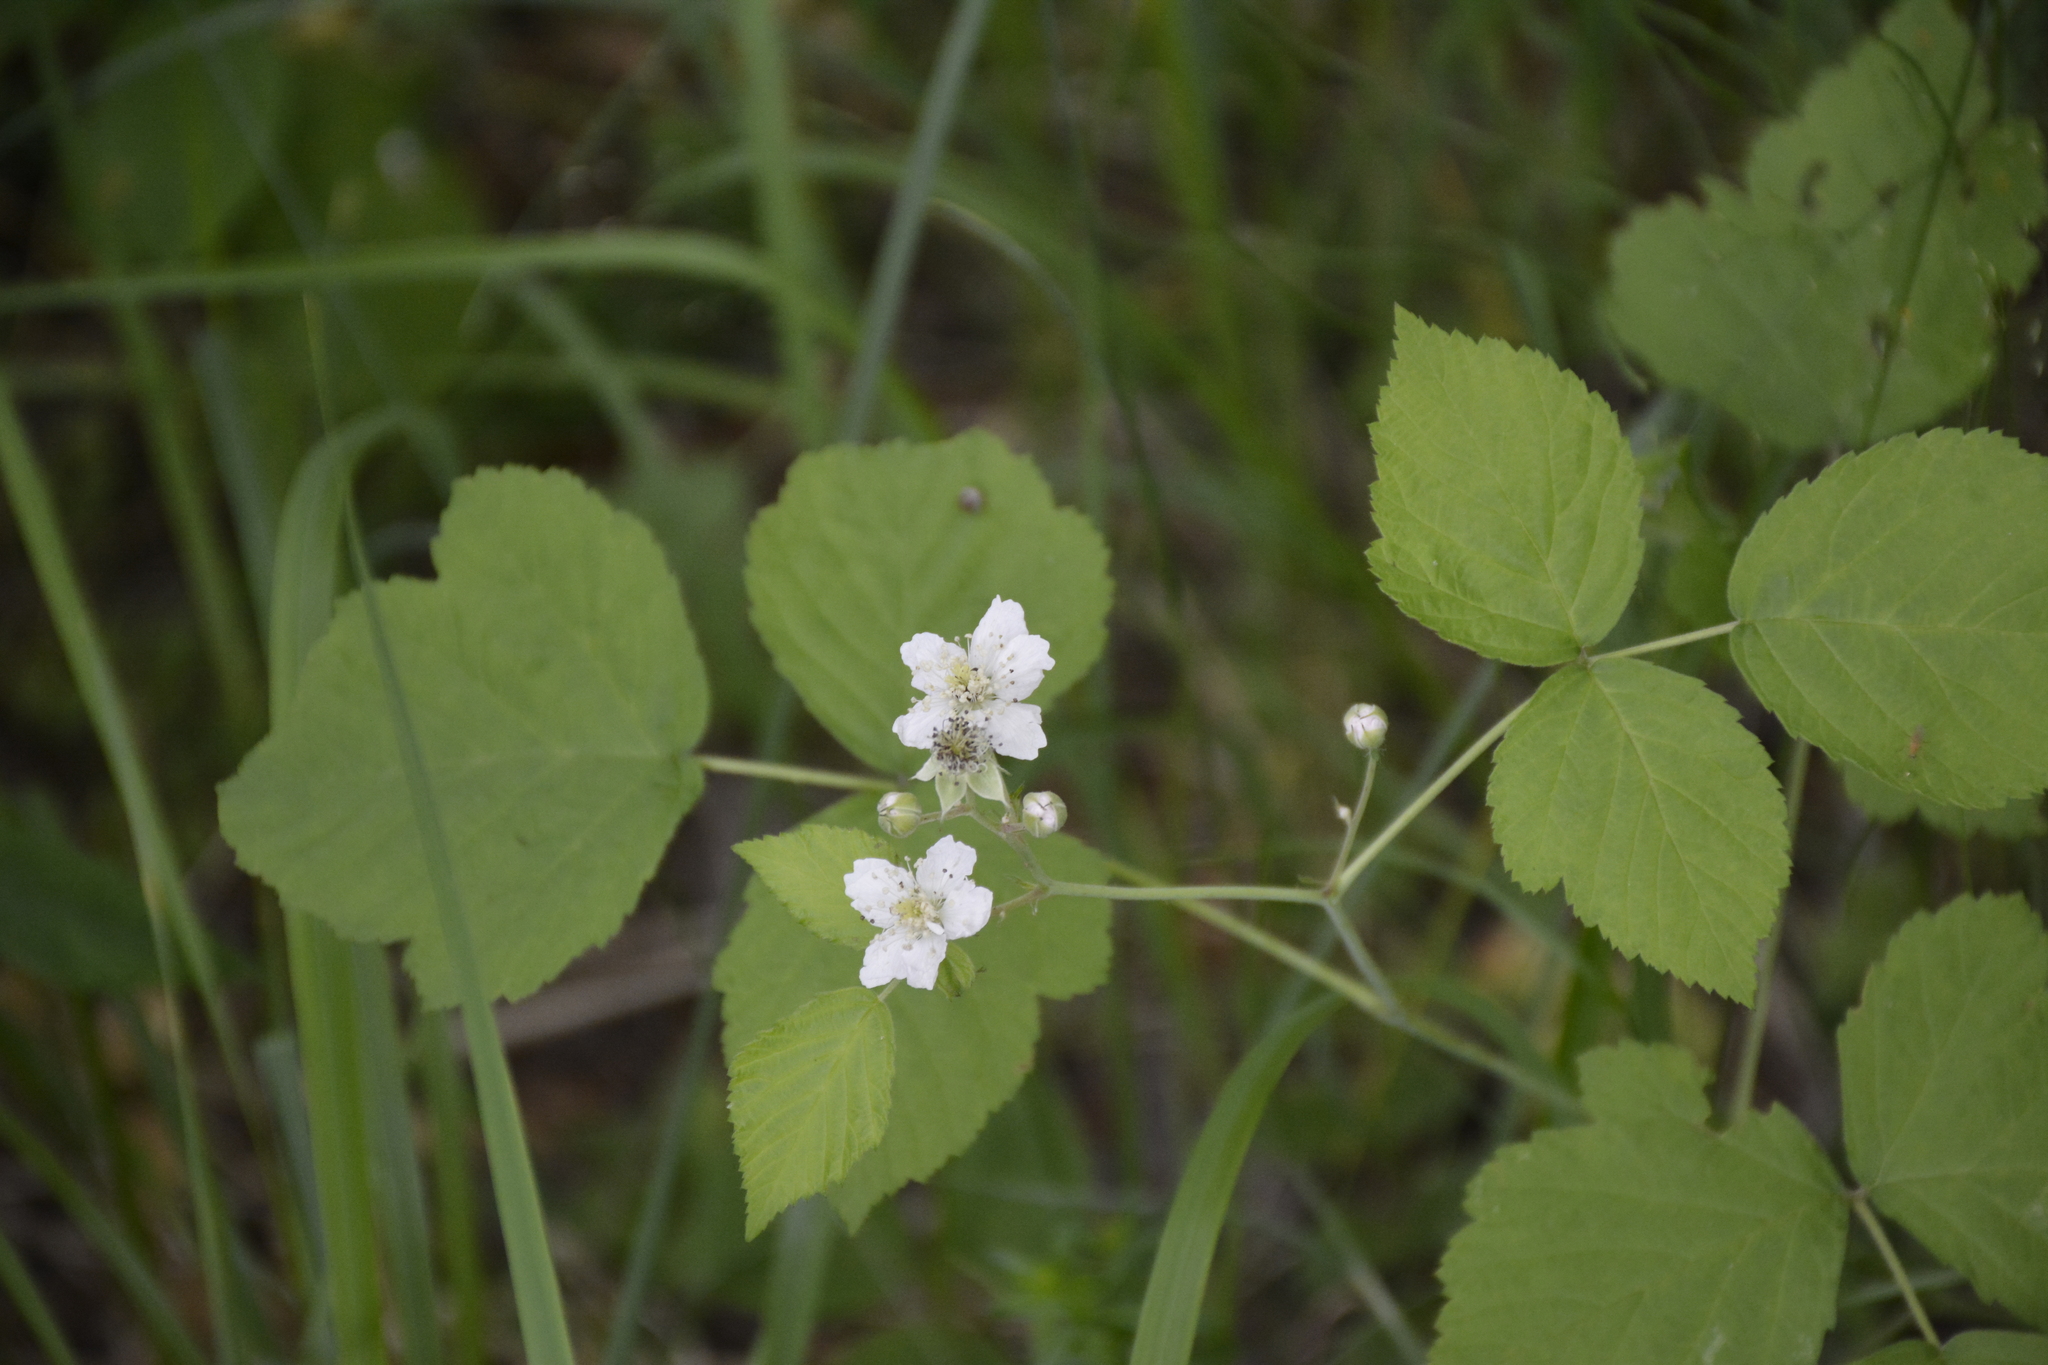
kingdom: Plantae
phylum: Tracheophyta
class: Magnoliopsida
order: Rosales
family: Rosaceae
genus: Rubus
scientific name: Rubus caesius
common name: Dewberry
